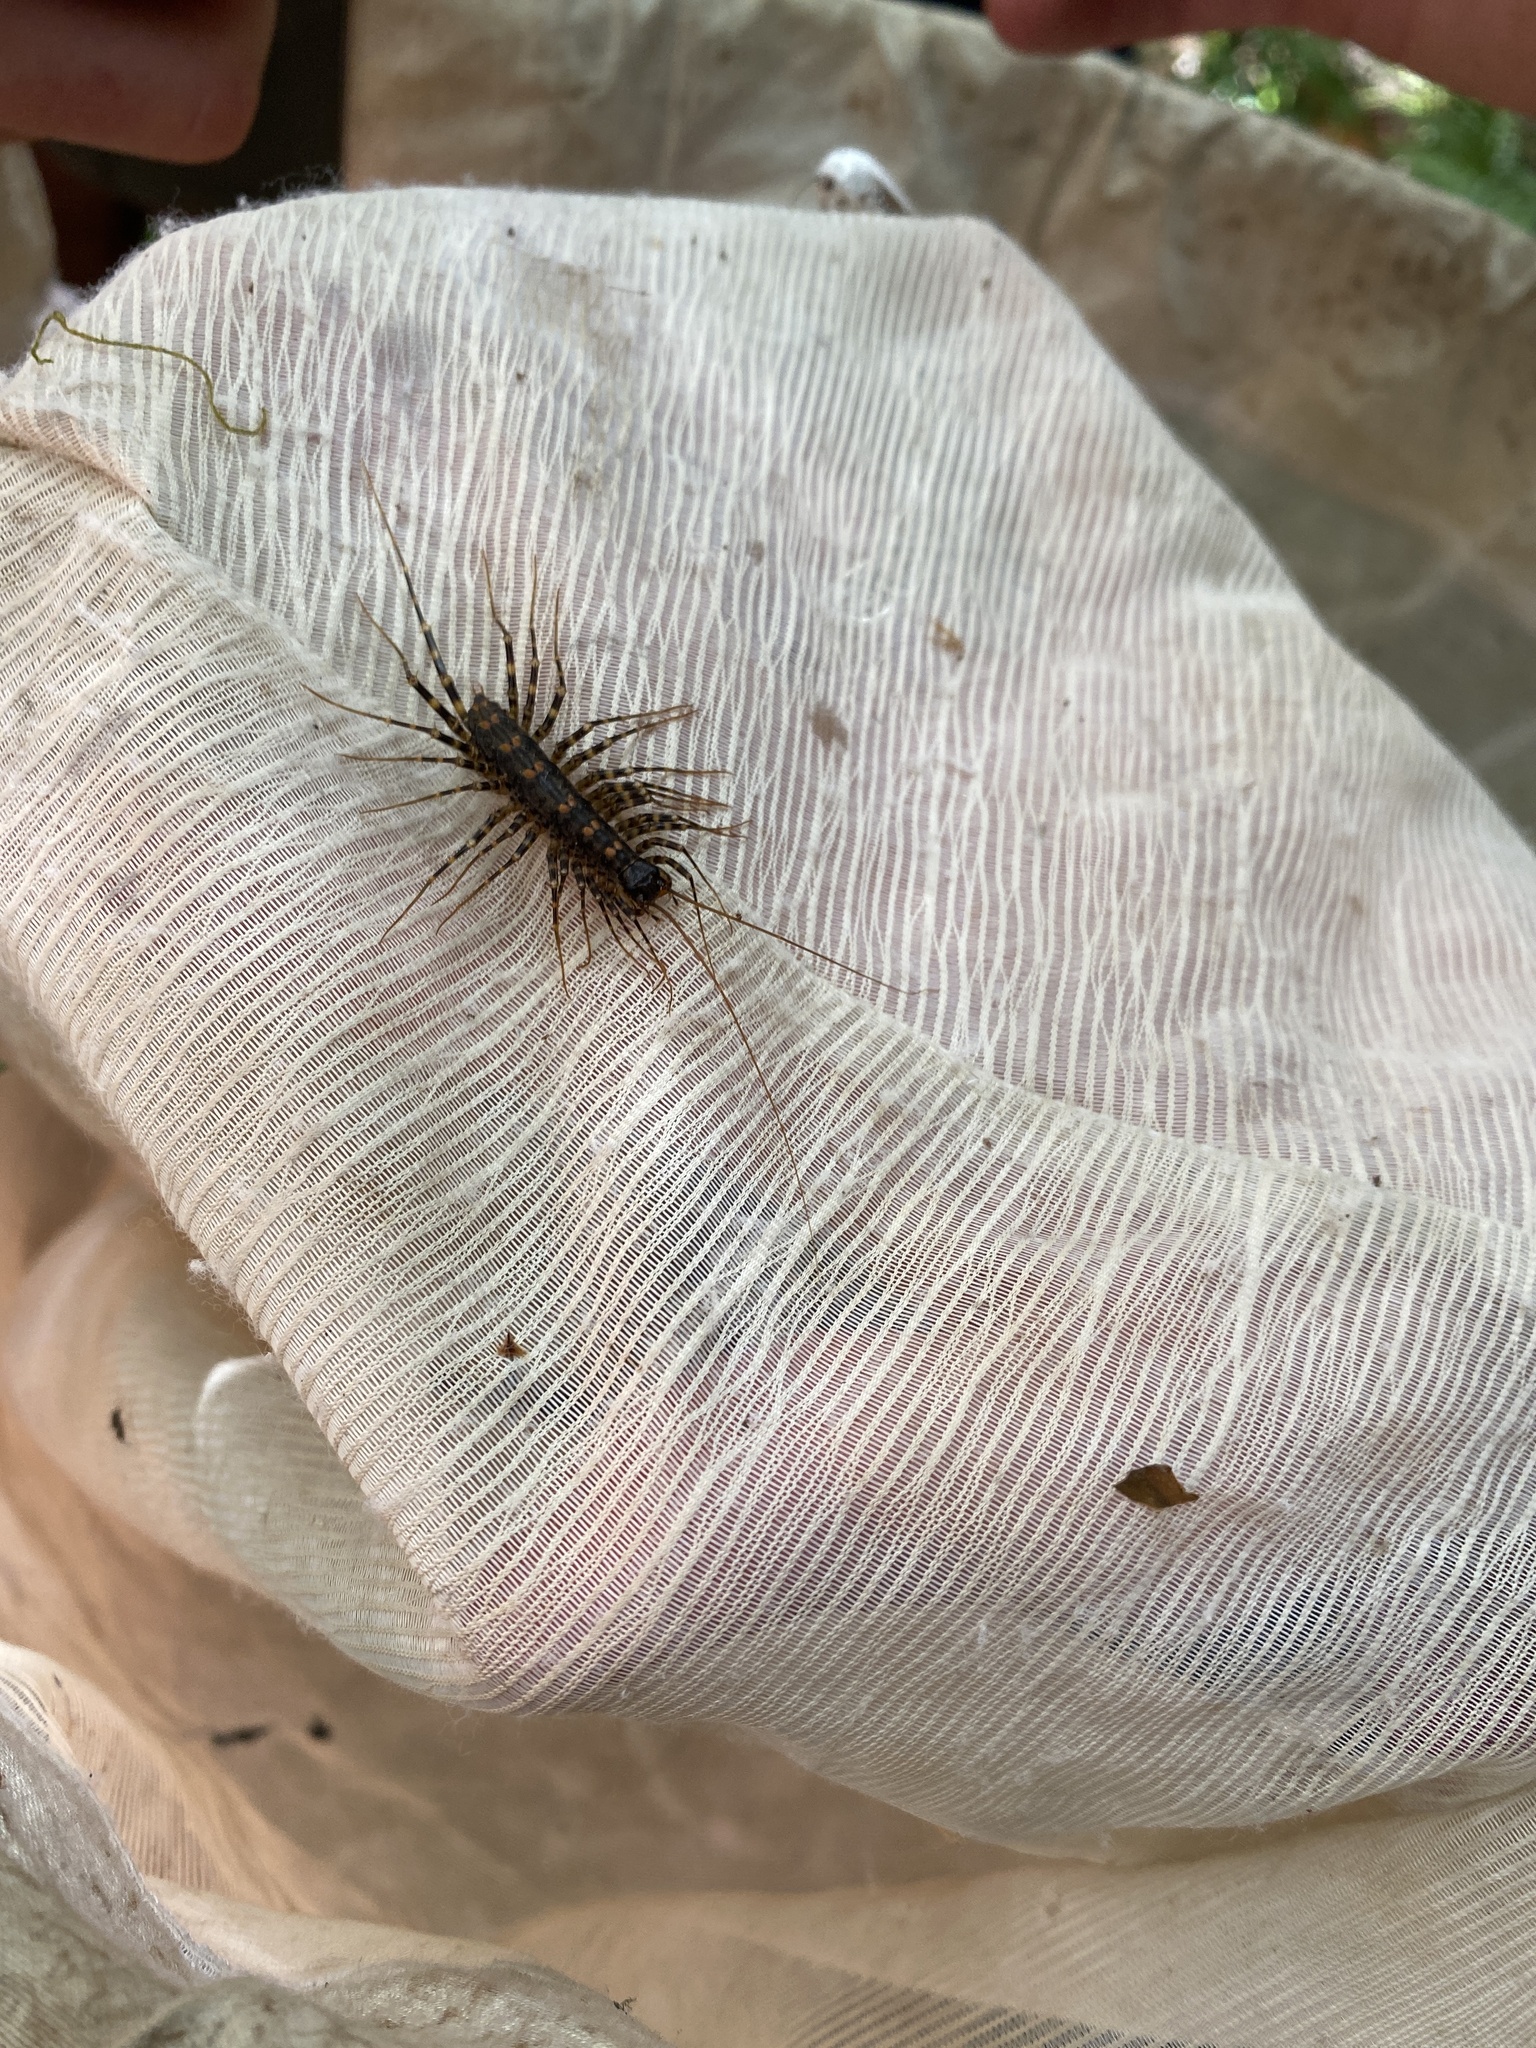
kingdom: Animalia
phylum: Arthropoda
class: Chilopoda
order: Scutigeromorpha
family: Scutigeridae
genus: Allothereua
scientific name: Allothereua maculata
